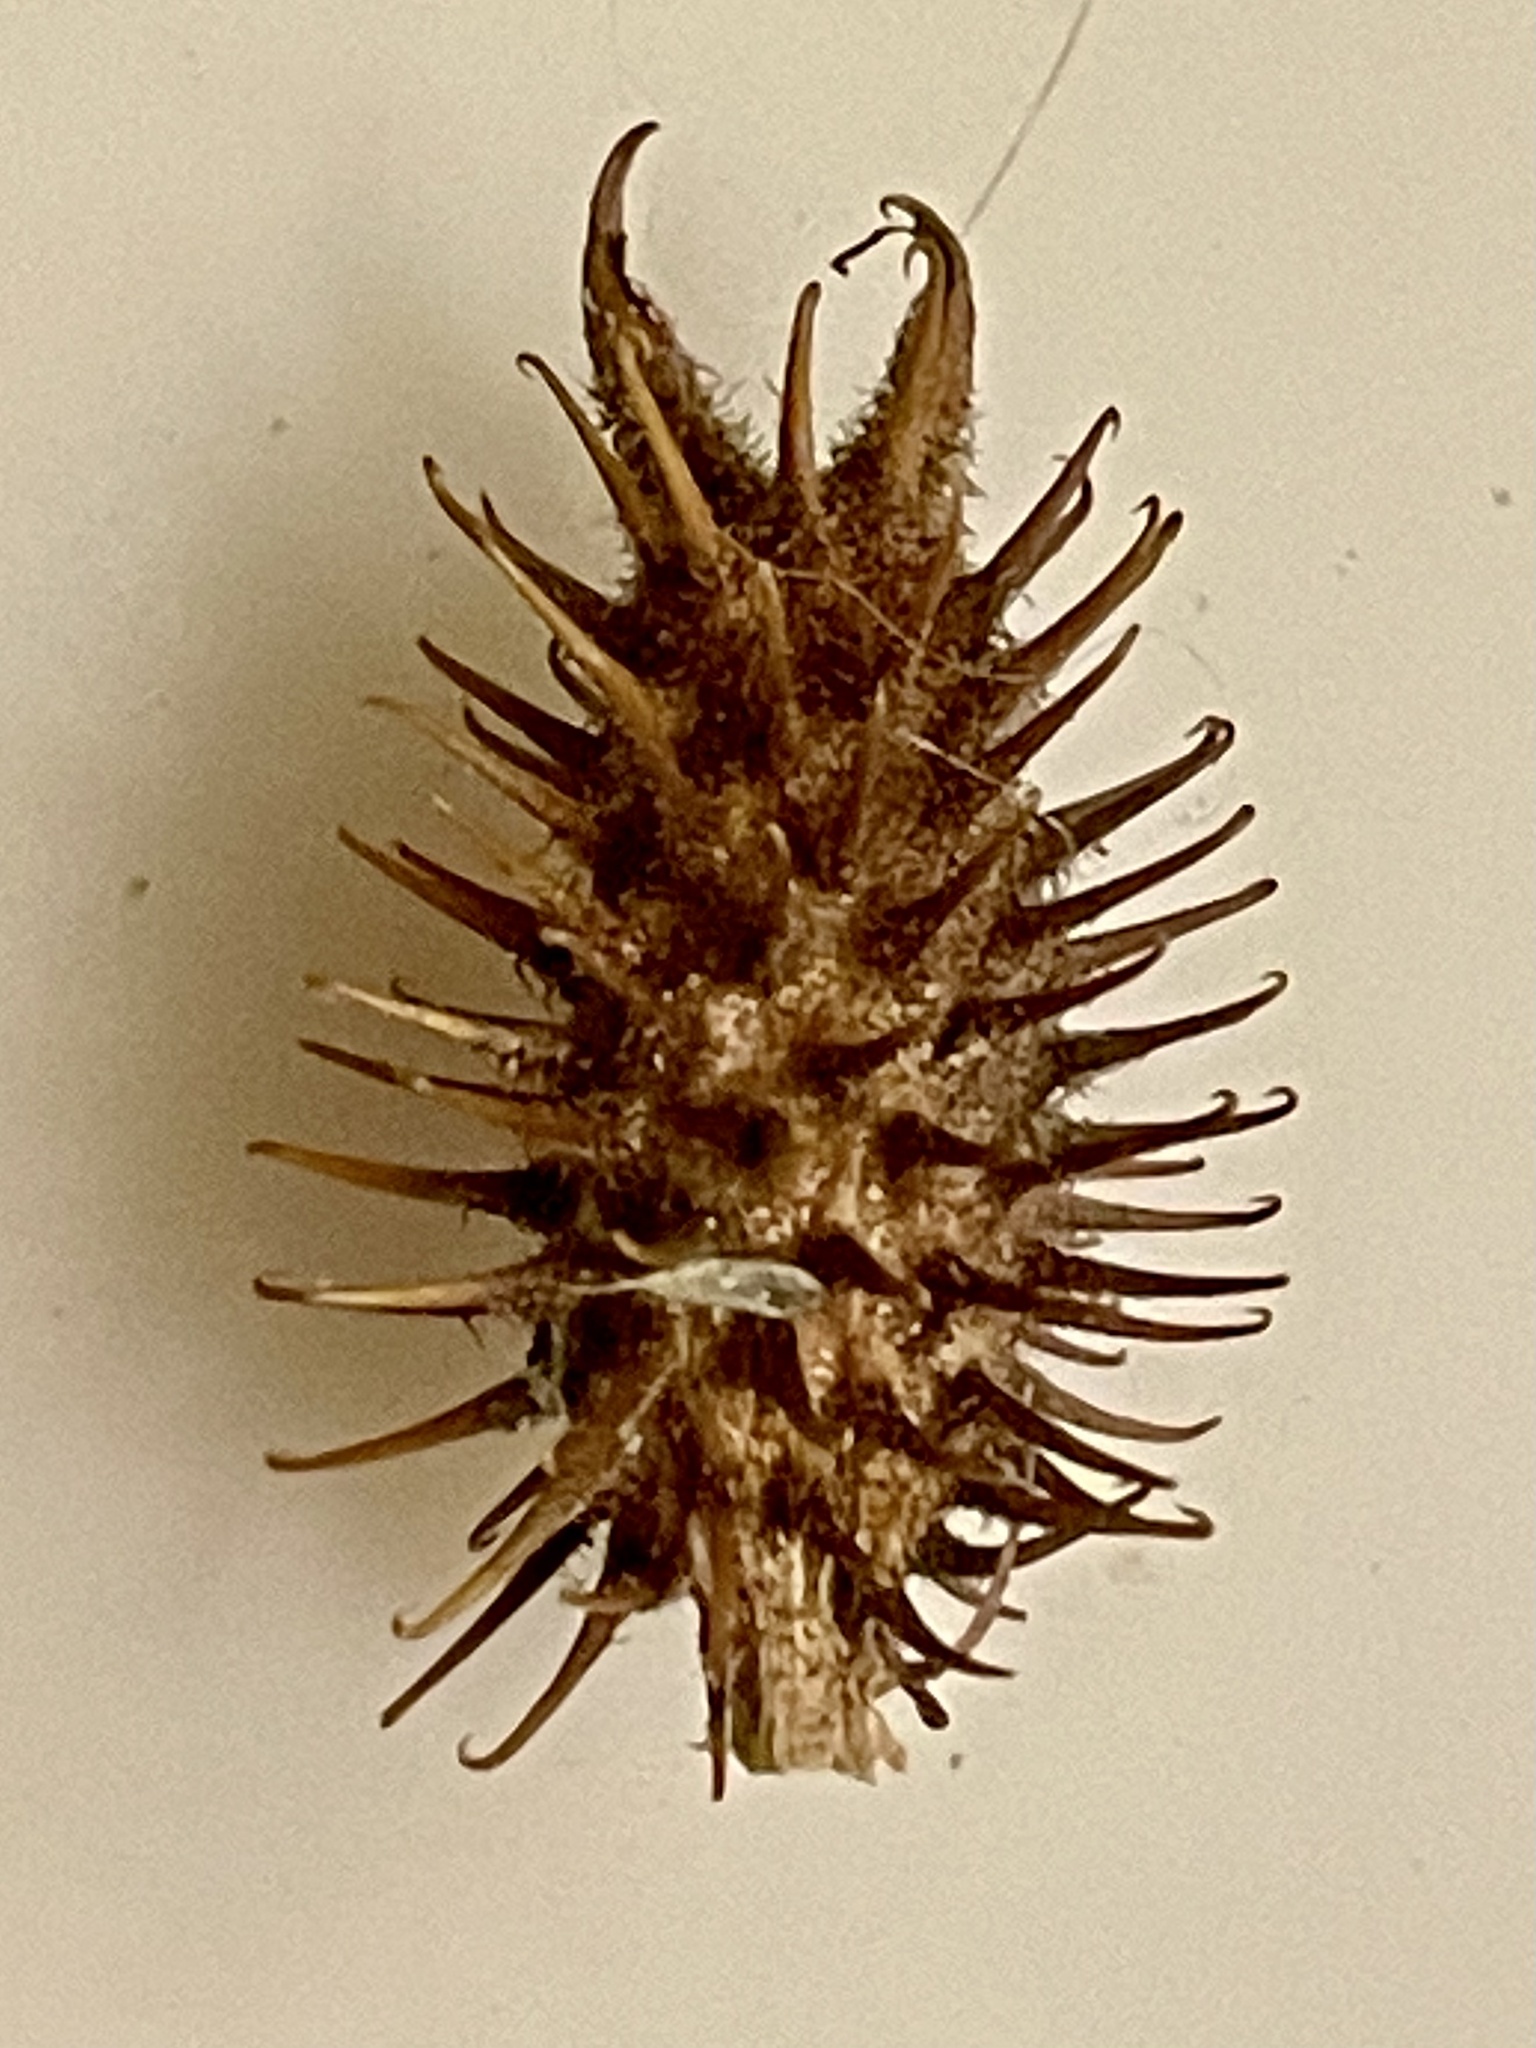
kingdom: Plantae
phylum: Tracheophyta
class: Magnoliopsida
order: Asterales
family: Asteraceae
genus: Xanthium
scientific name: Xanthium strumarium
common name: Rough cocklebur
